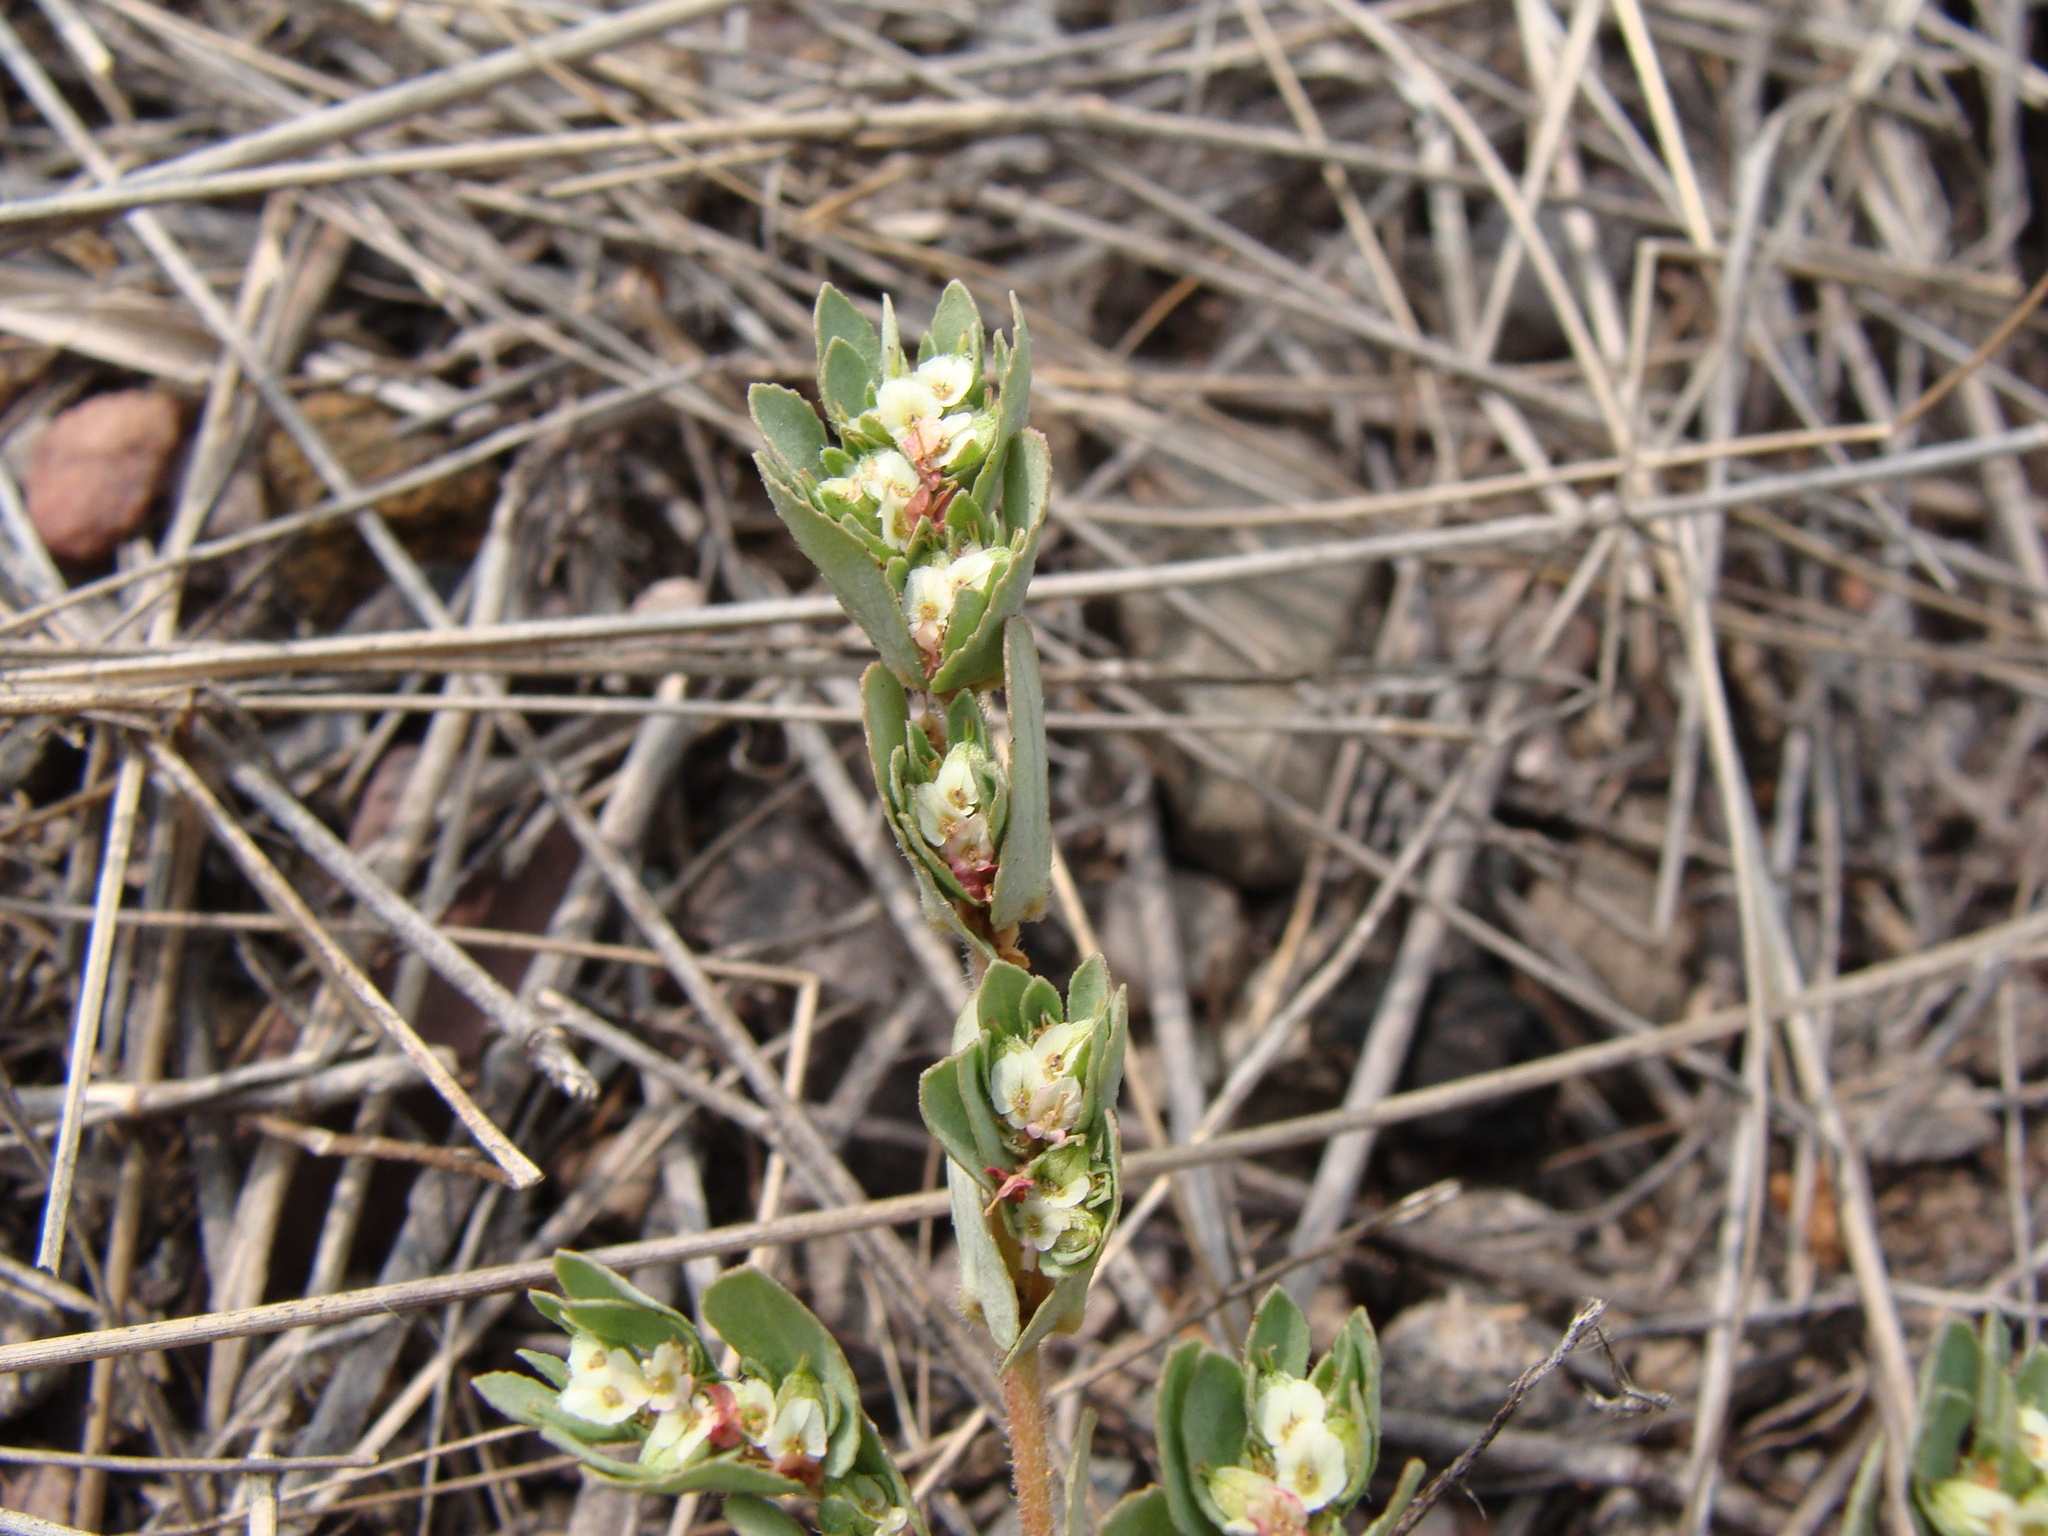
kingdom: Plantae
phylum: Tracheophyta
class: Magnoliopsida
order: Malpighiales
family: Euphorbiaceae
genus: Euphorbia
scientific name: Euphorbia indivisa
